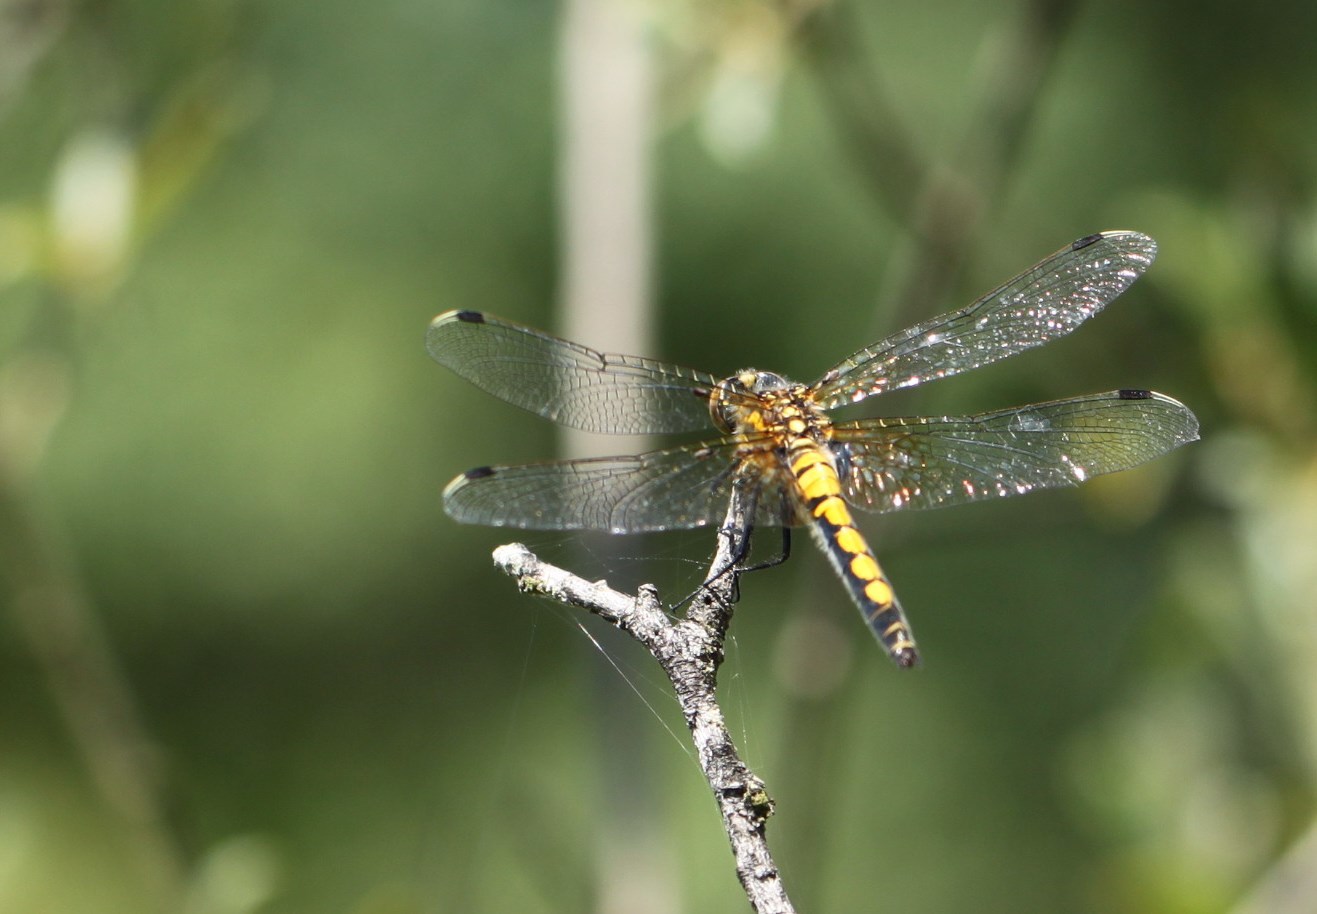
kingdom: Animalia
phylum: Arthropoda
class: Insecta
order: Odonata
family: Libellulidae
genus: Leucorrhinia
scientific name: Leucorrhinia pectoralis
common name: Yellow-spotted whiteface
